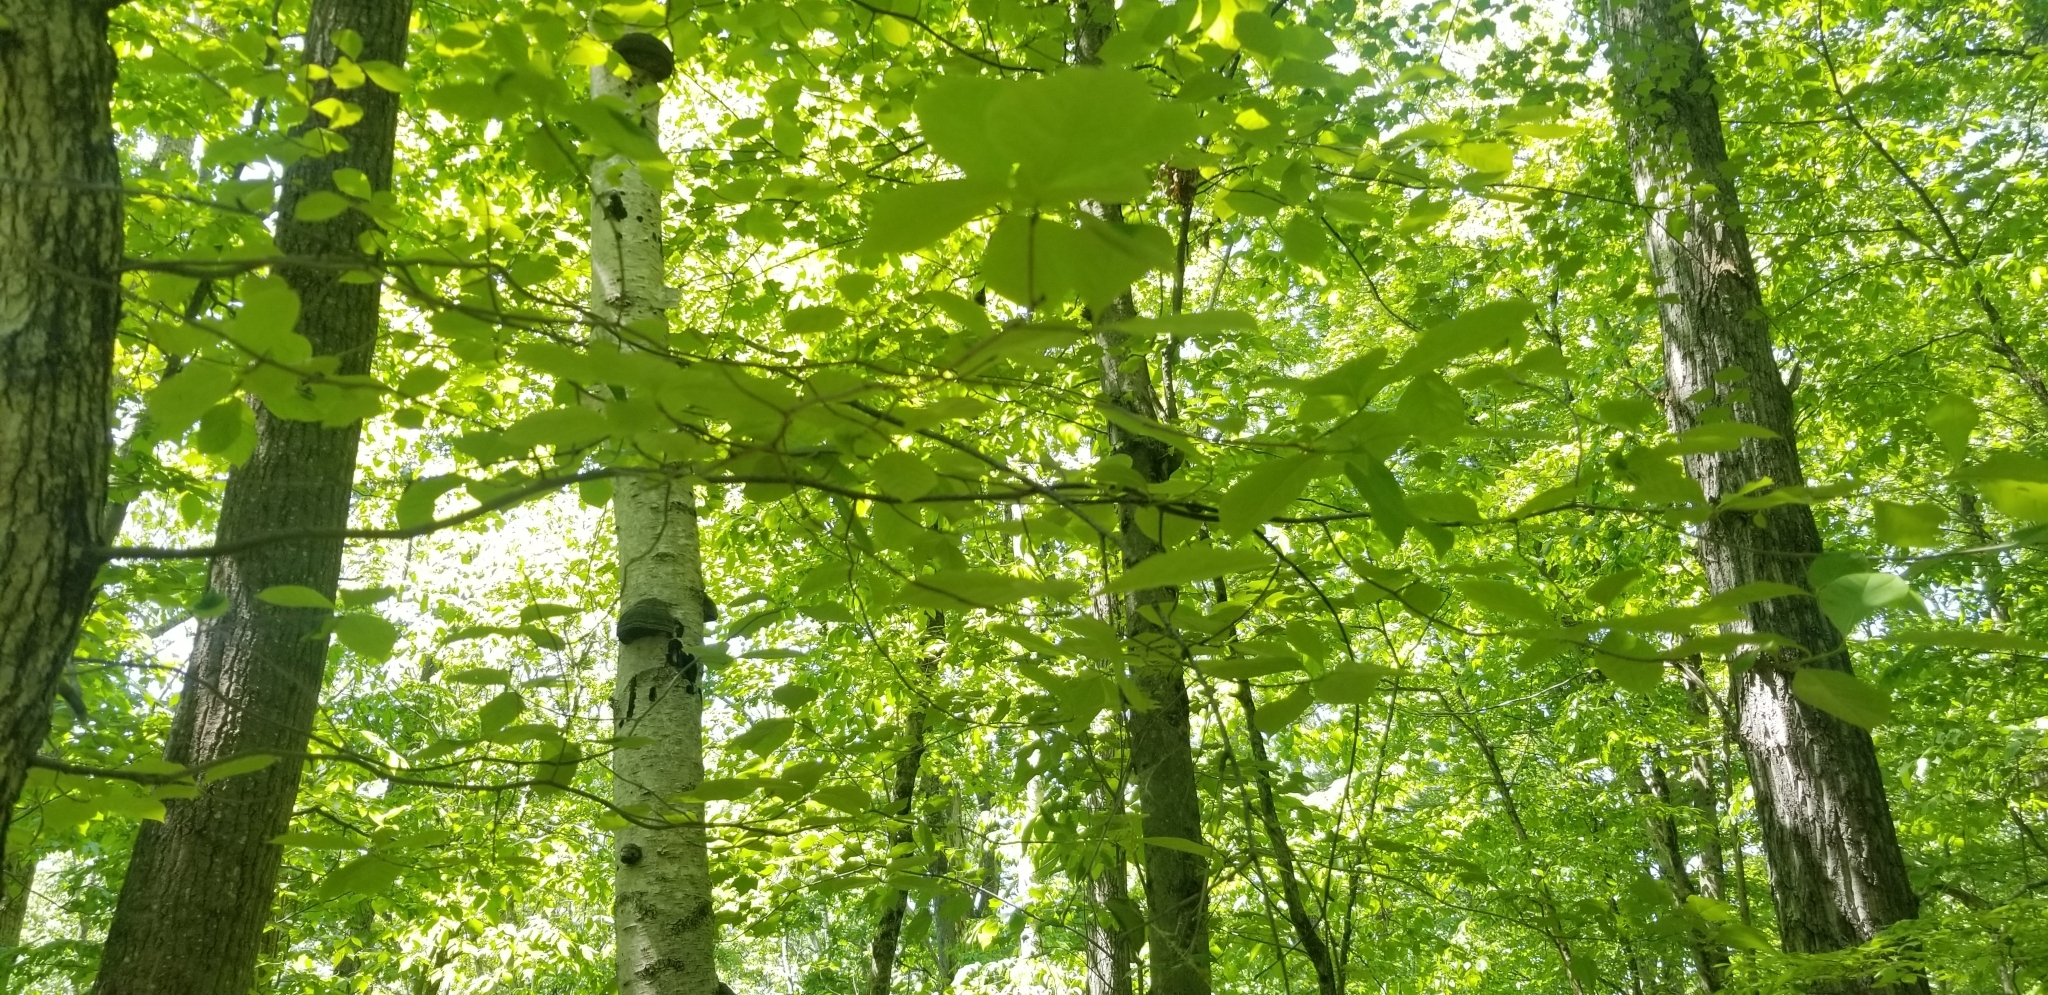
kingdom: Plantae
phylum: Tracheophyta
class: Magnoliopsida
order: Cornales
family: Nyssaceae
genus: Nyssa
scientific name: Nyssa sylvatica
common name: Black tupelo
